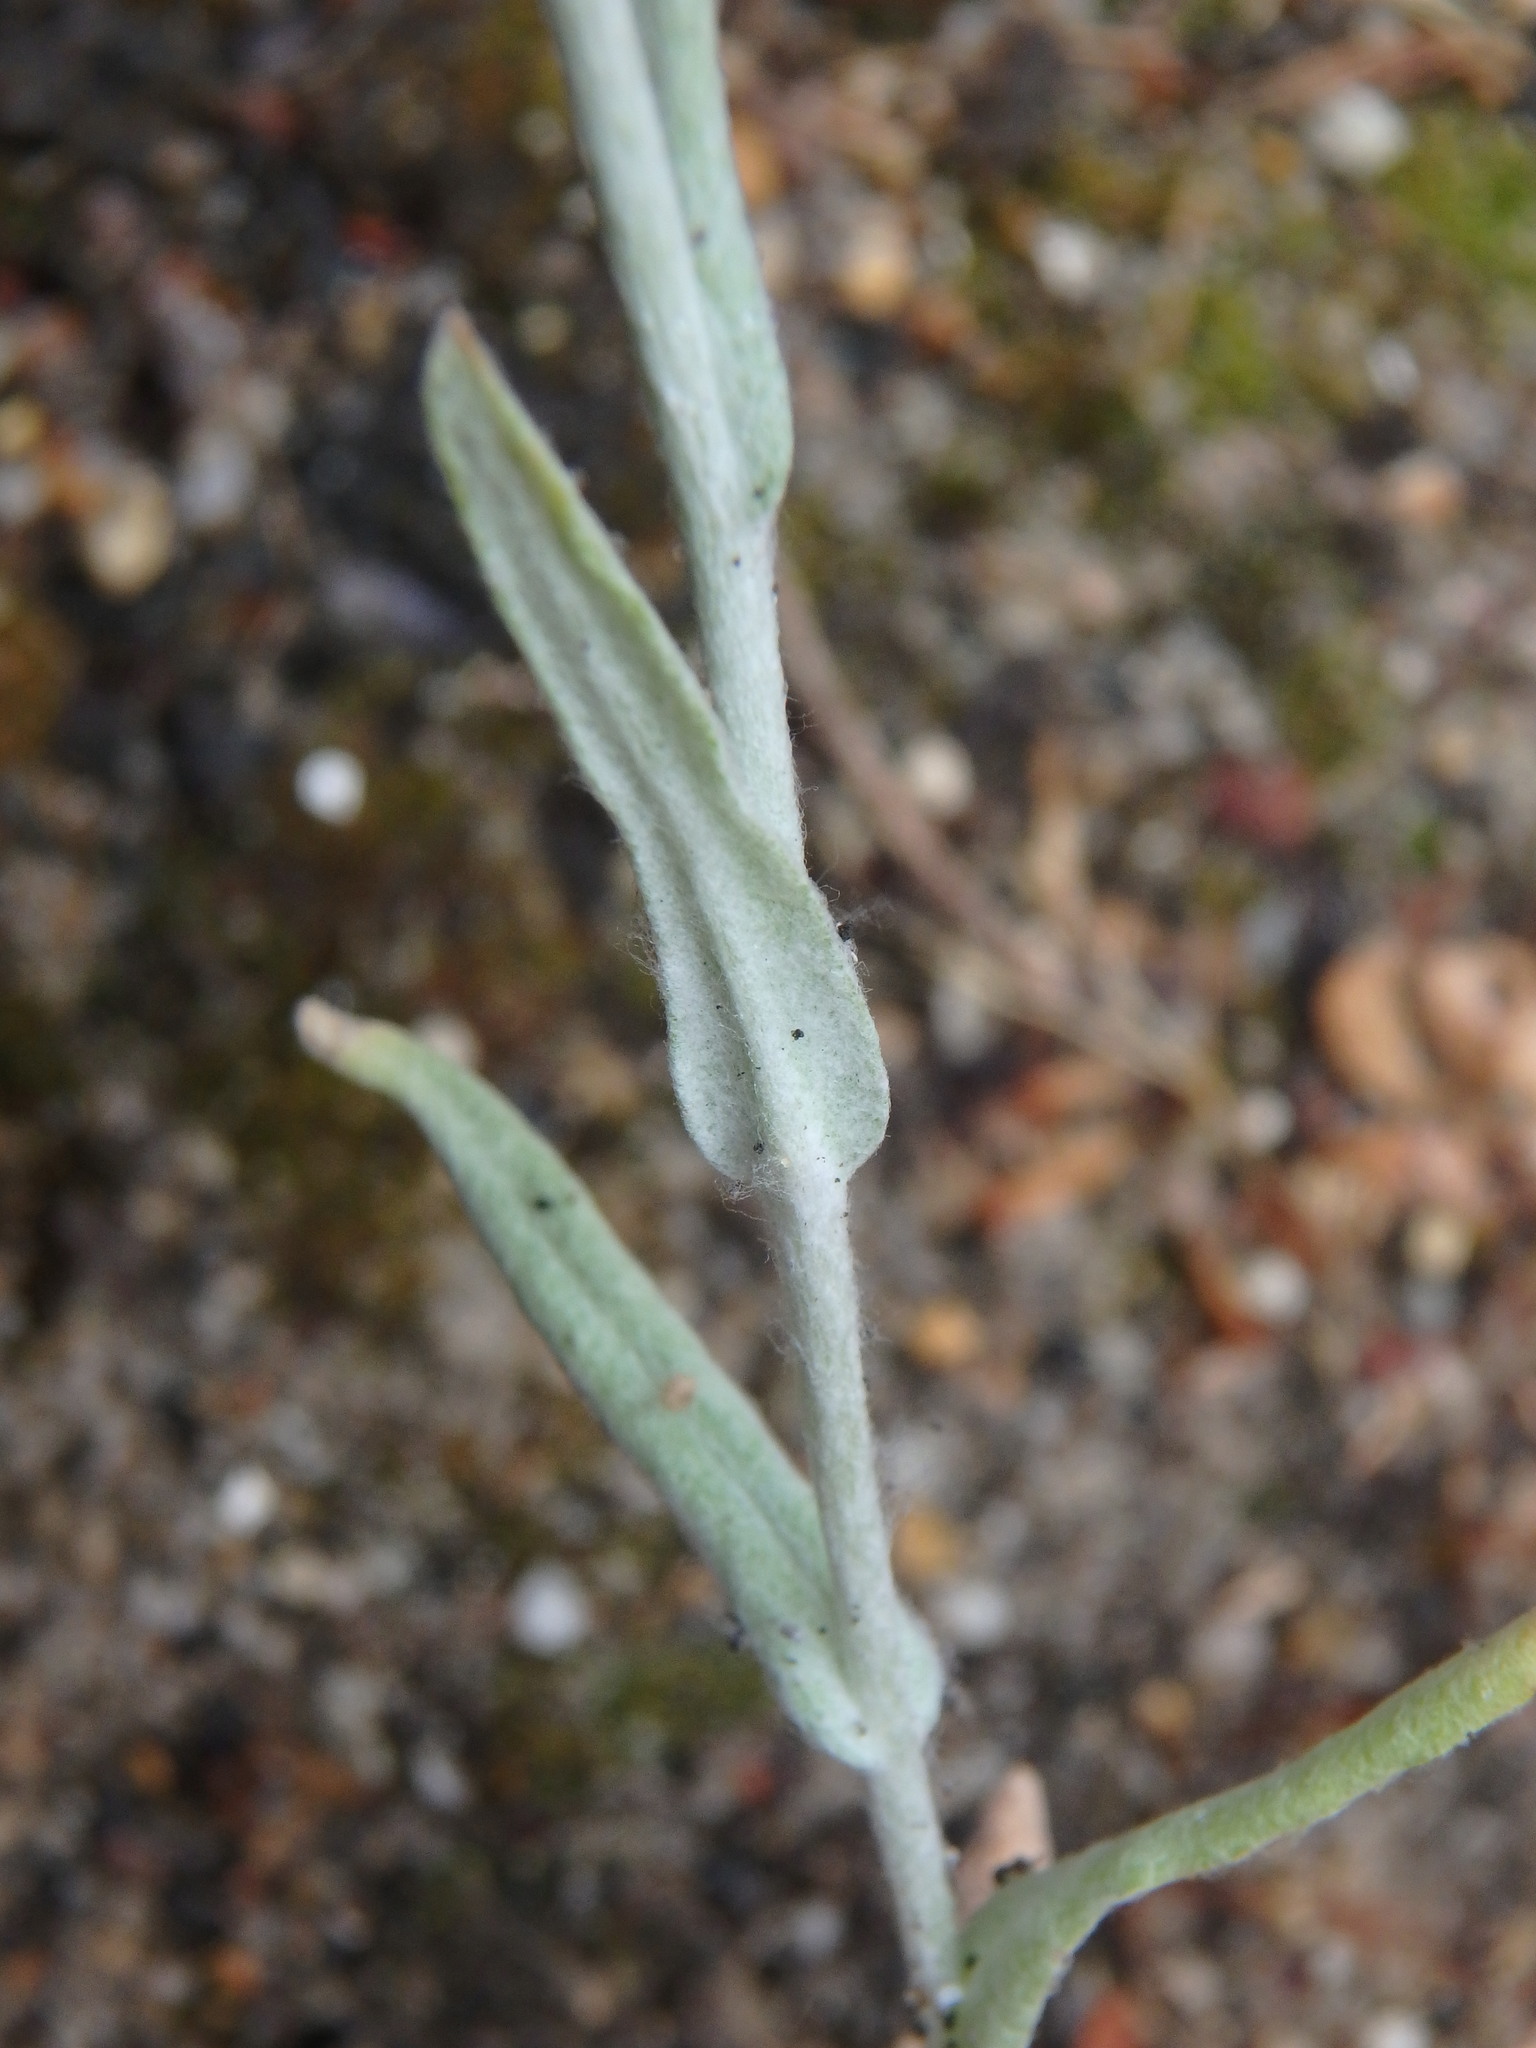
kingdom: Plantae
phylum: Tracheophyta
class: Magnoliopsida
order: Asterales
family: Asteraceae
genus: Helichrysum
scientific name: Helichrysum luteoalbum
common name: Daisy
